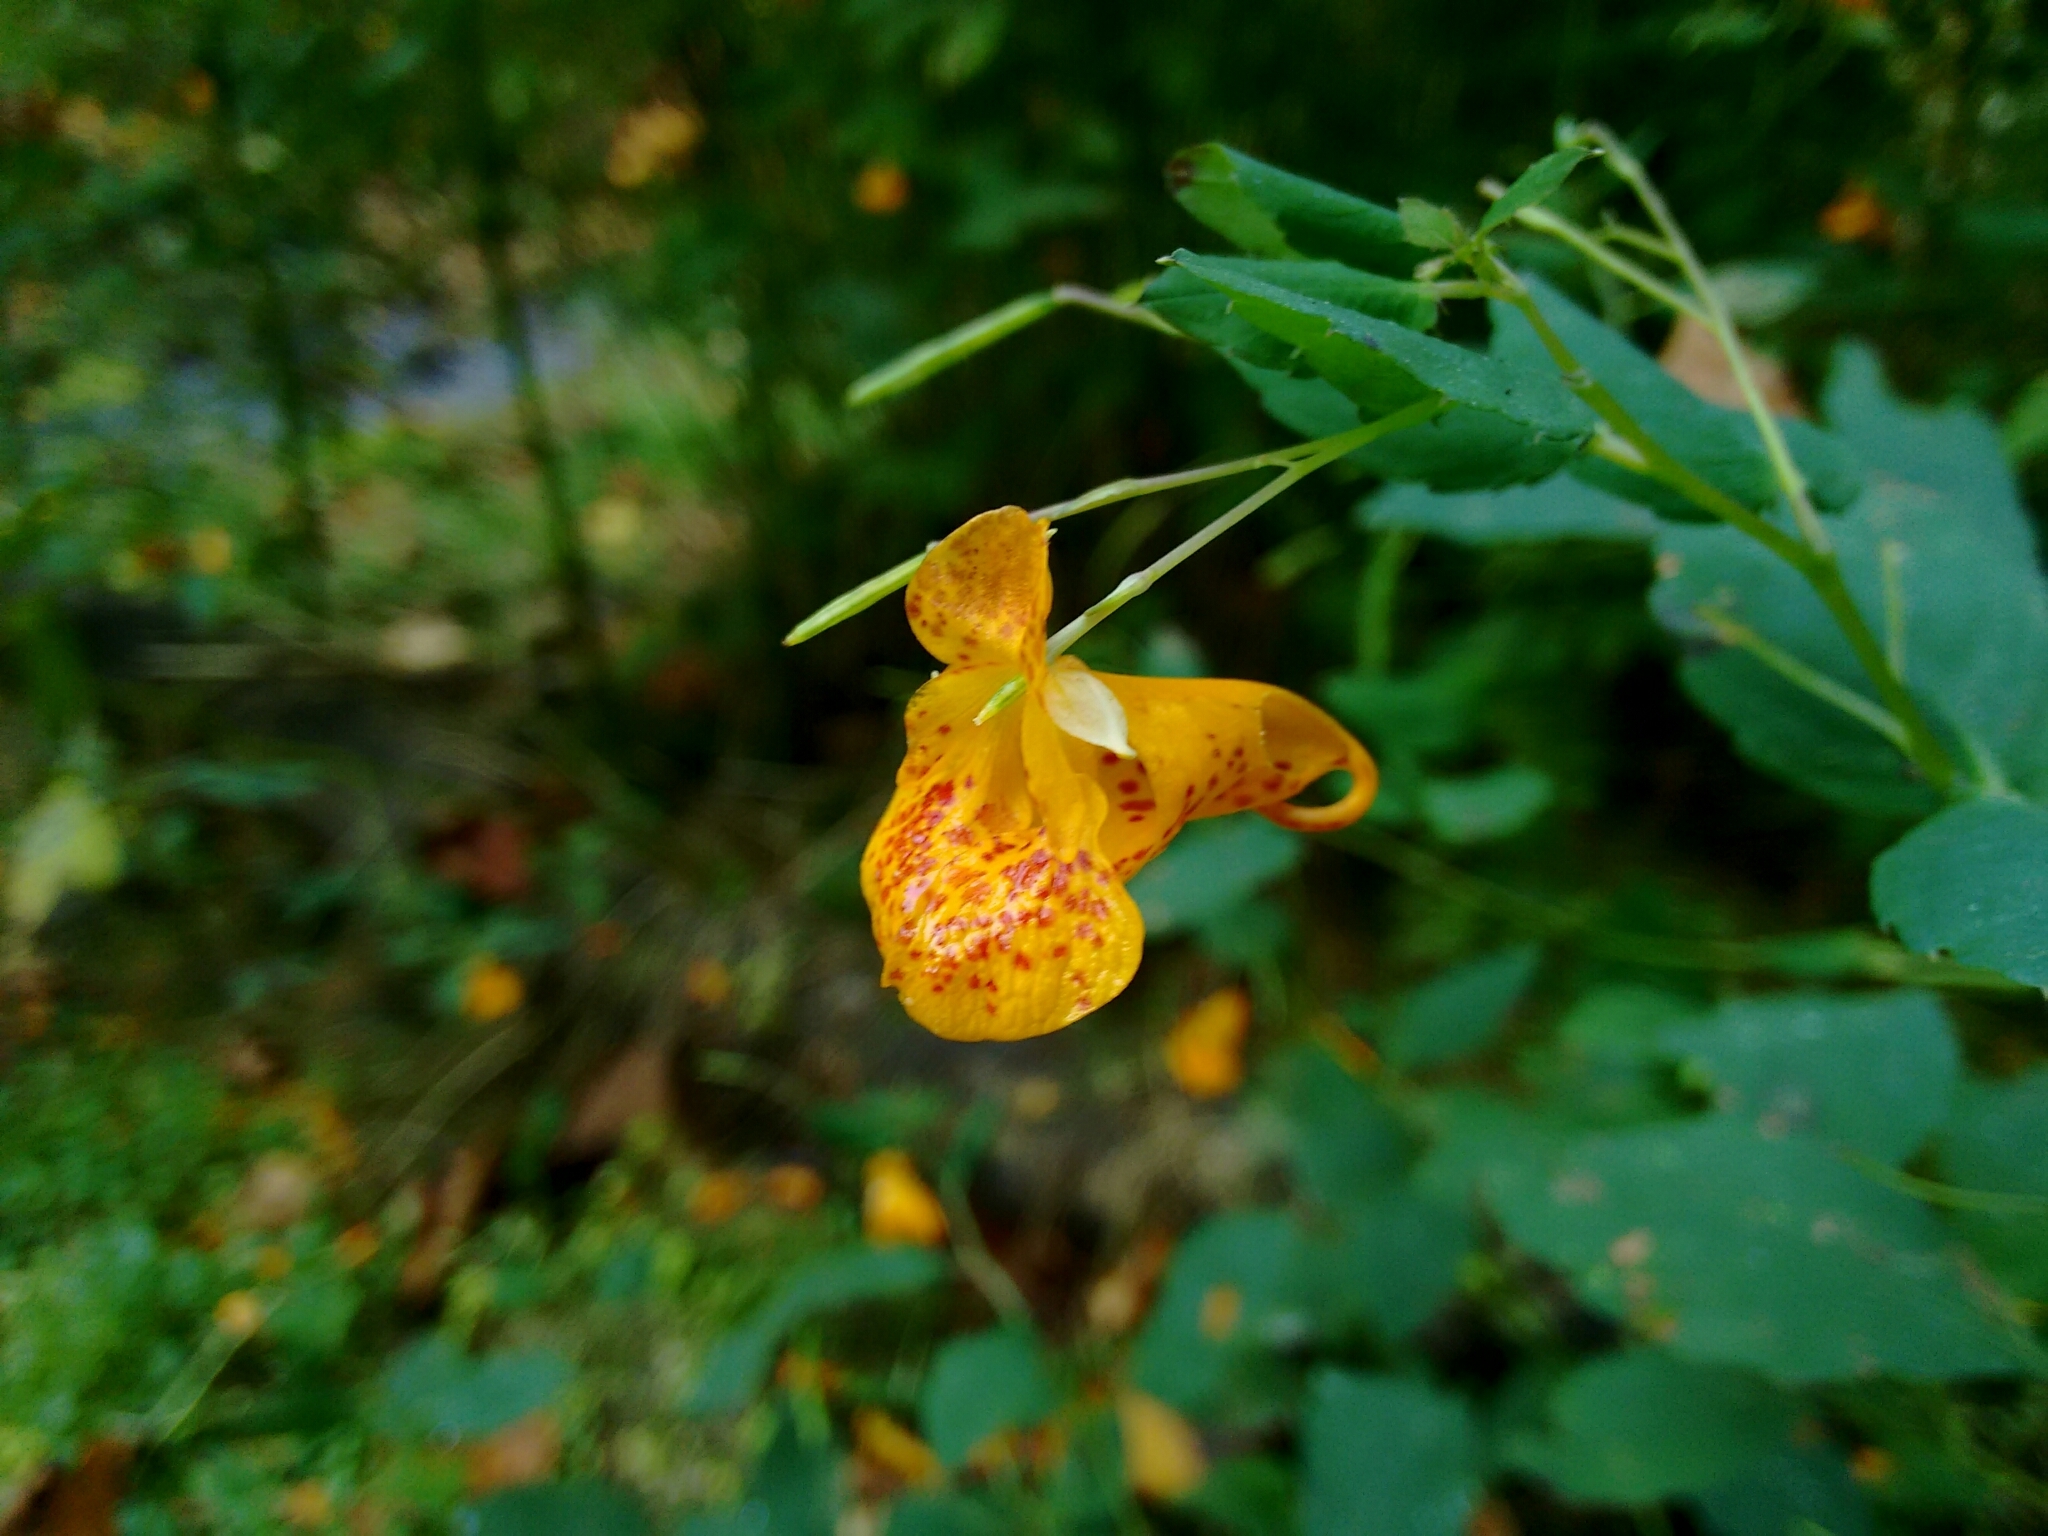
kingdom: Plantae
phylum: Tracheophyta
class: Magnoliopsida
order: Ericales
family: Balsaminaceae
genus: Impatiens
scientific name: Impatiens capensis
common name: Orange balsam
